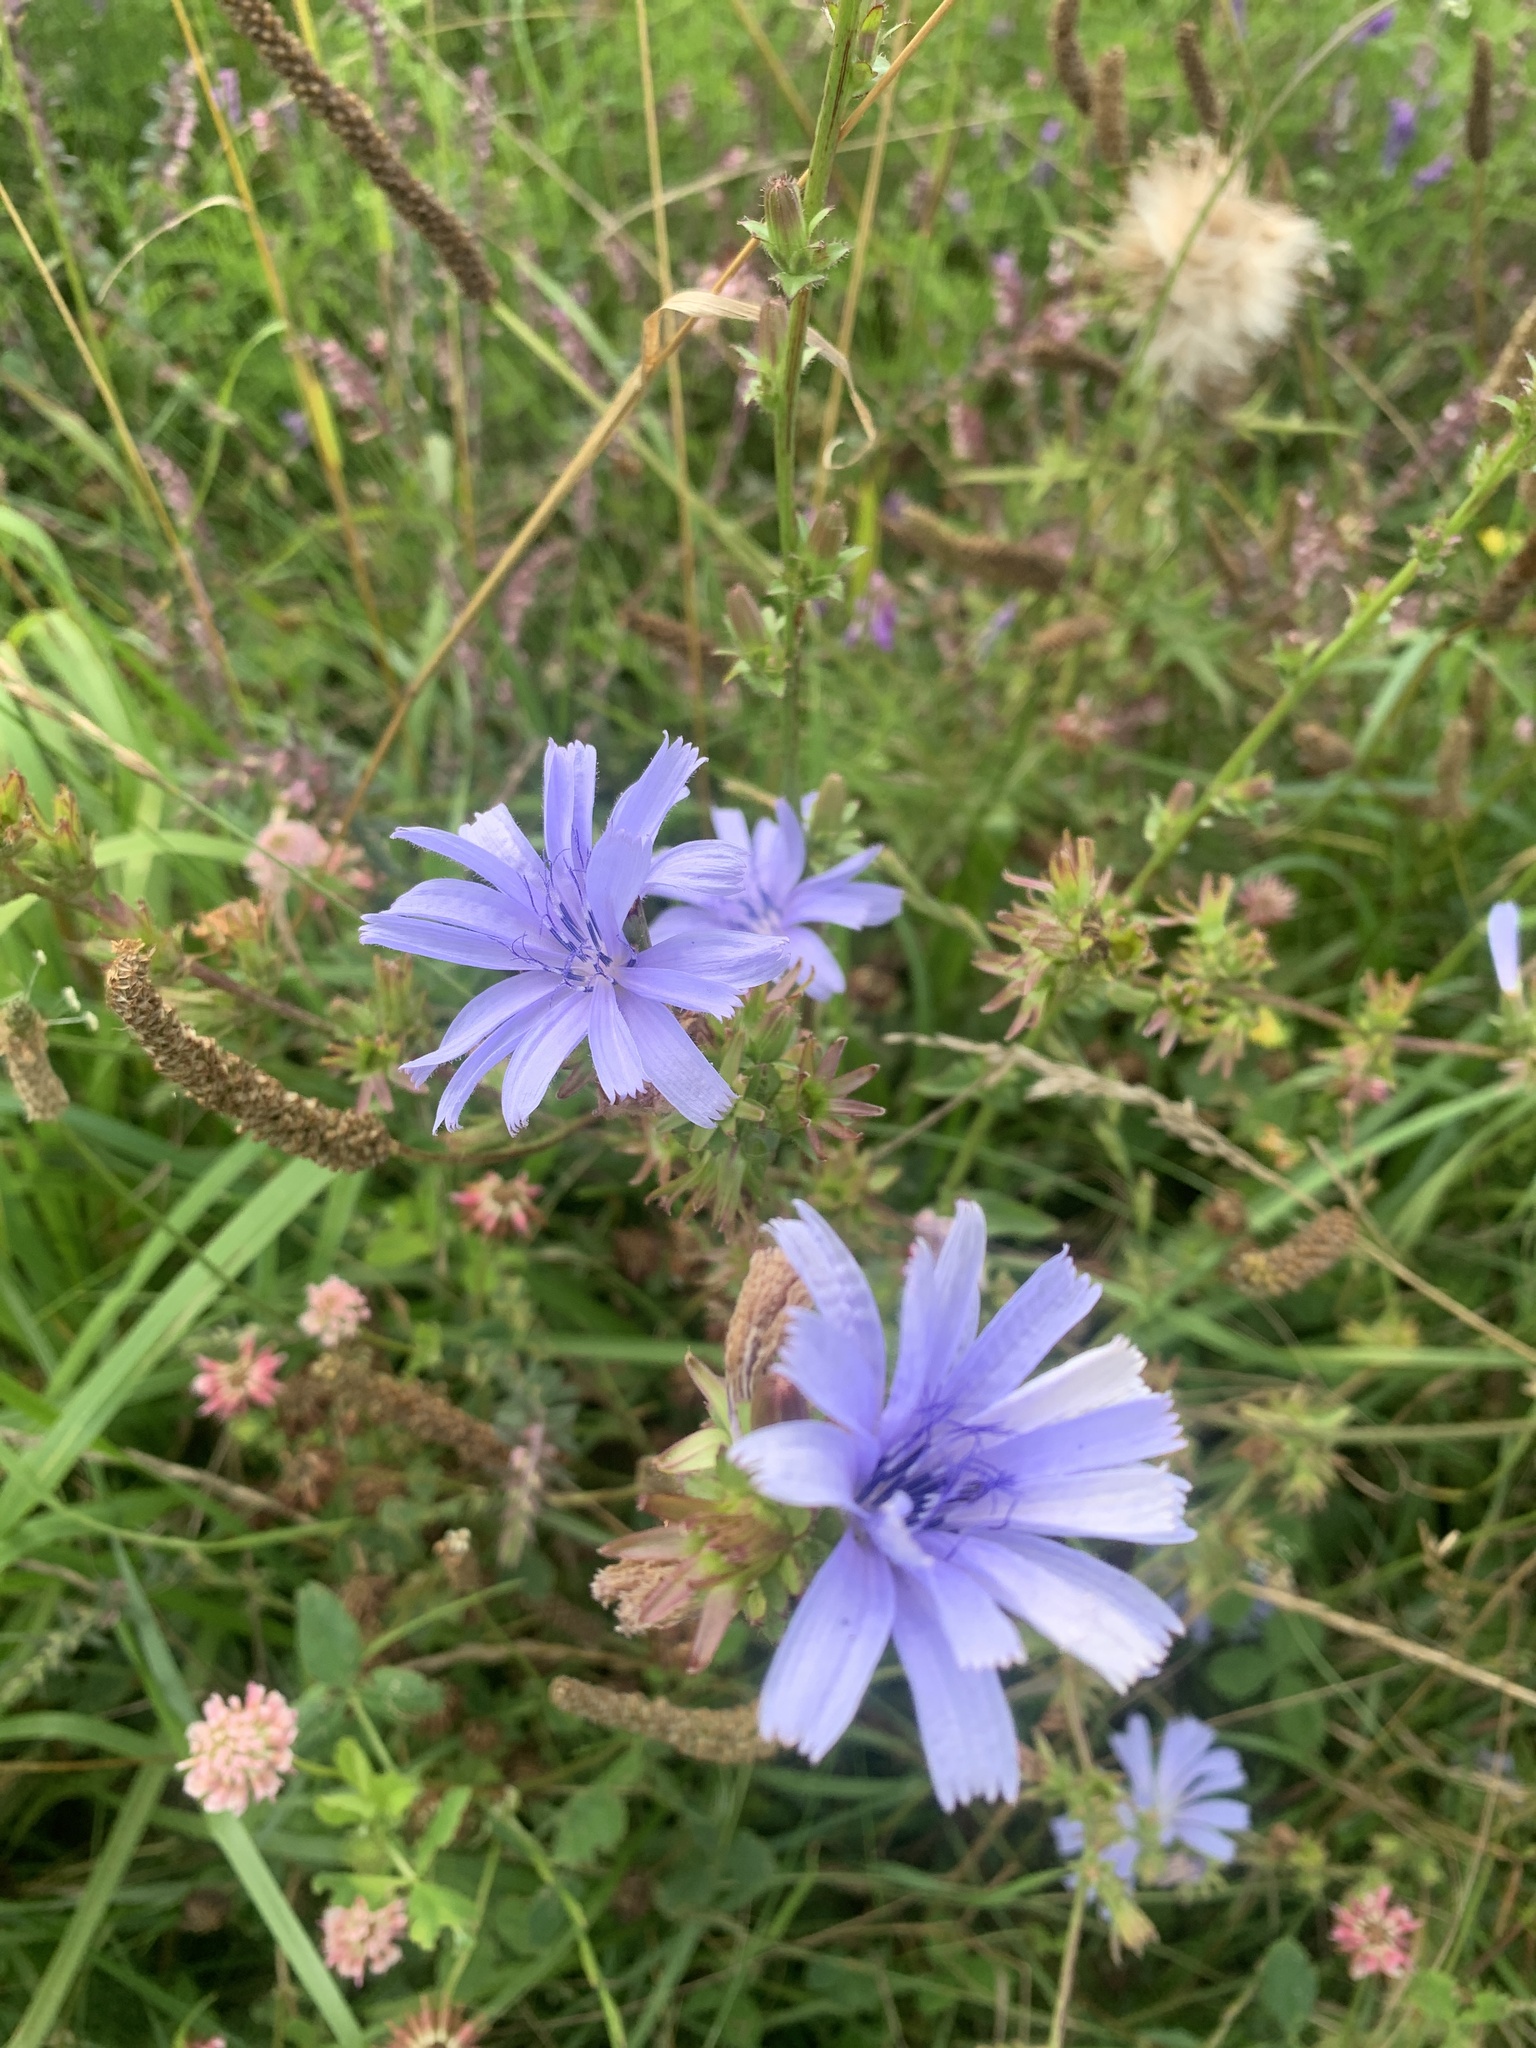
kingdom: Plantae
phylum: Tracheophyta
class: Magnoliopsida
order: Asterales
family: Asteraceae
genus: Cichorium
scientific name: Cichorium intybus
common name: Chicory
